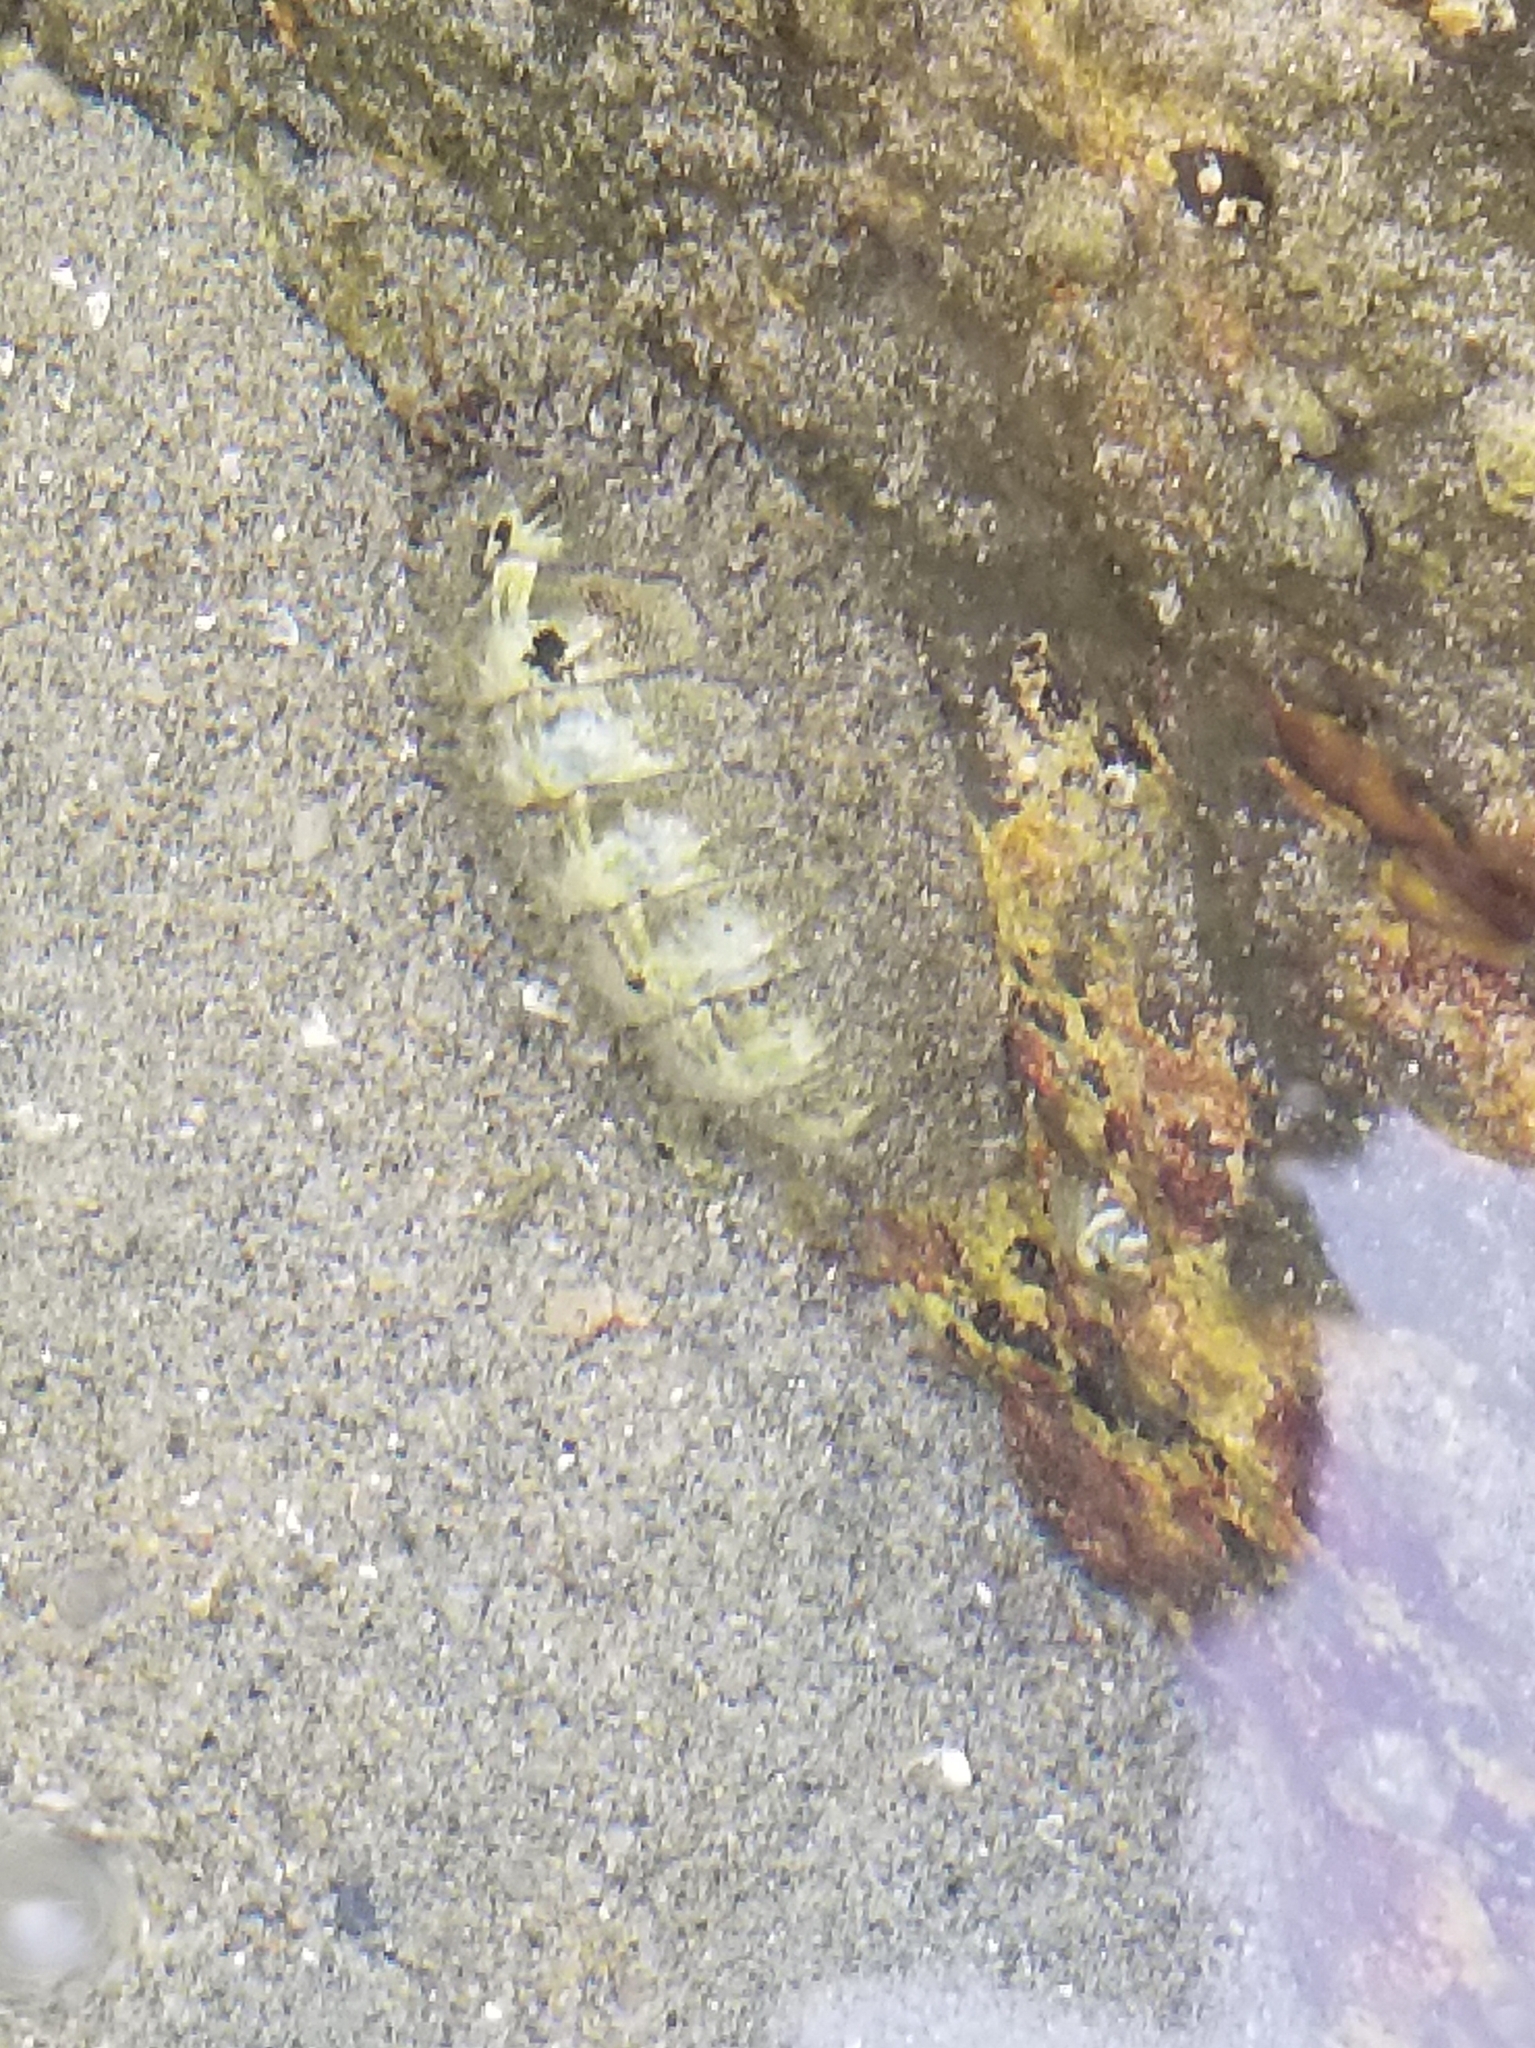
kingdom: Animalia
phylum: Mollusca
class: Polyplacophora
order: Chitonida
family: Mopaliidae
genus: Mopalia
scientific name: Mopalia muscosa
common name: Mossy chiton
